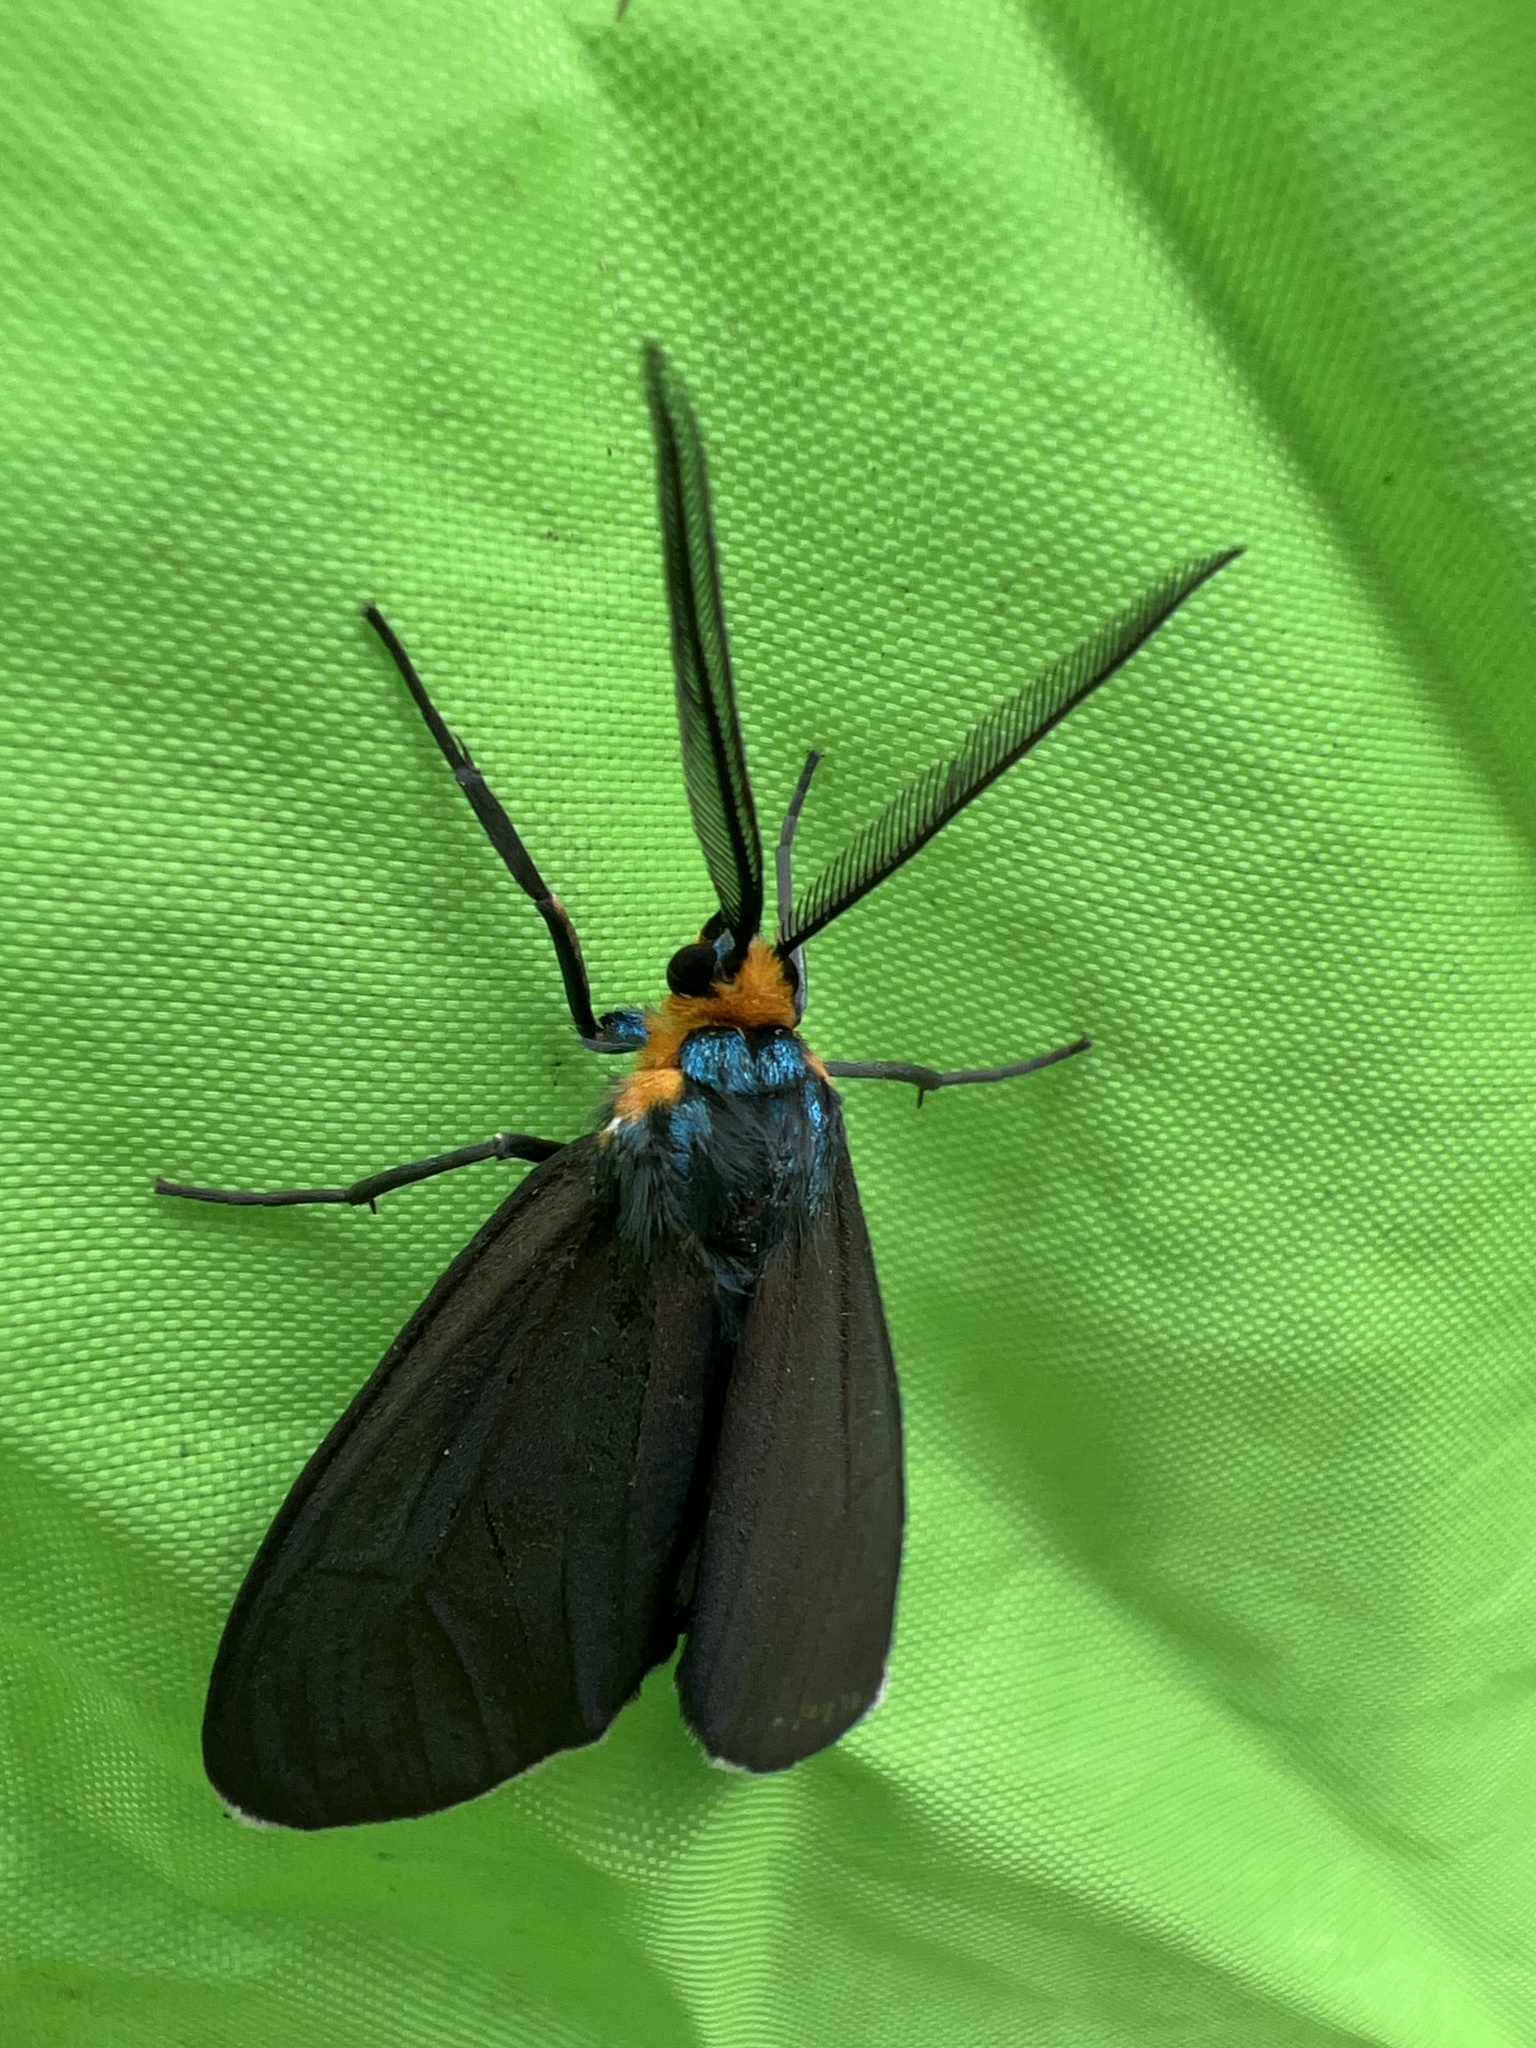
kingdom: Animalia
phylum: Arthropoda
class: Insecta
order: Lepidoptera
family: Erebidae
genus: Ctenucha
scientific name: Ctenucha virginica
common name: Virginia ctenucha moth
